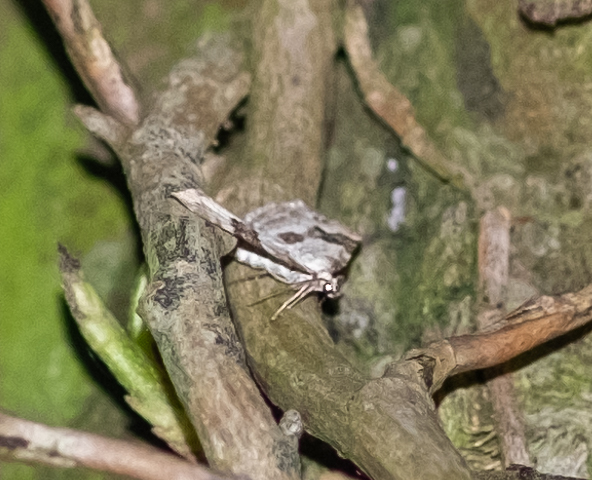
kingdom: Animalia
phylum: Arthropoda
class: Insecta
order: Lepidoptera
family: Geometridae
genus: Xanthorhoe
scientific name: Xanthorhoe montanata
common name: Silver-ground carpet
